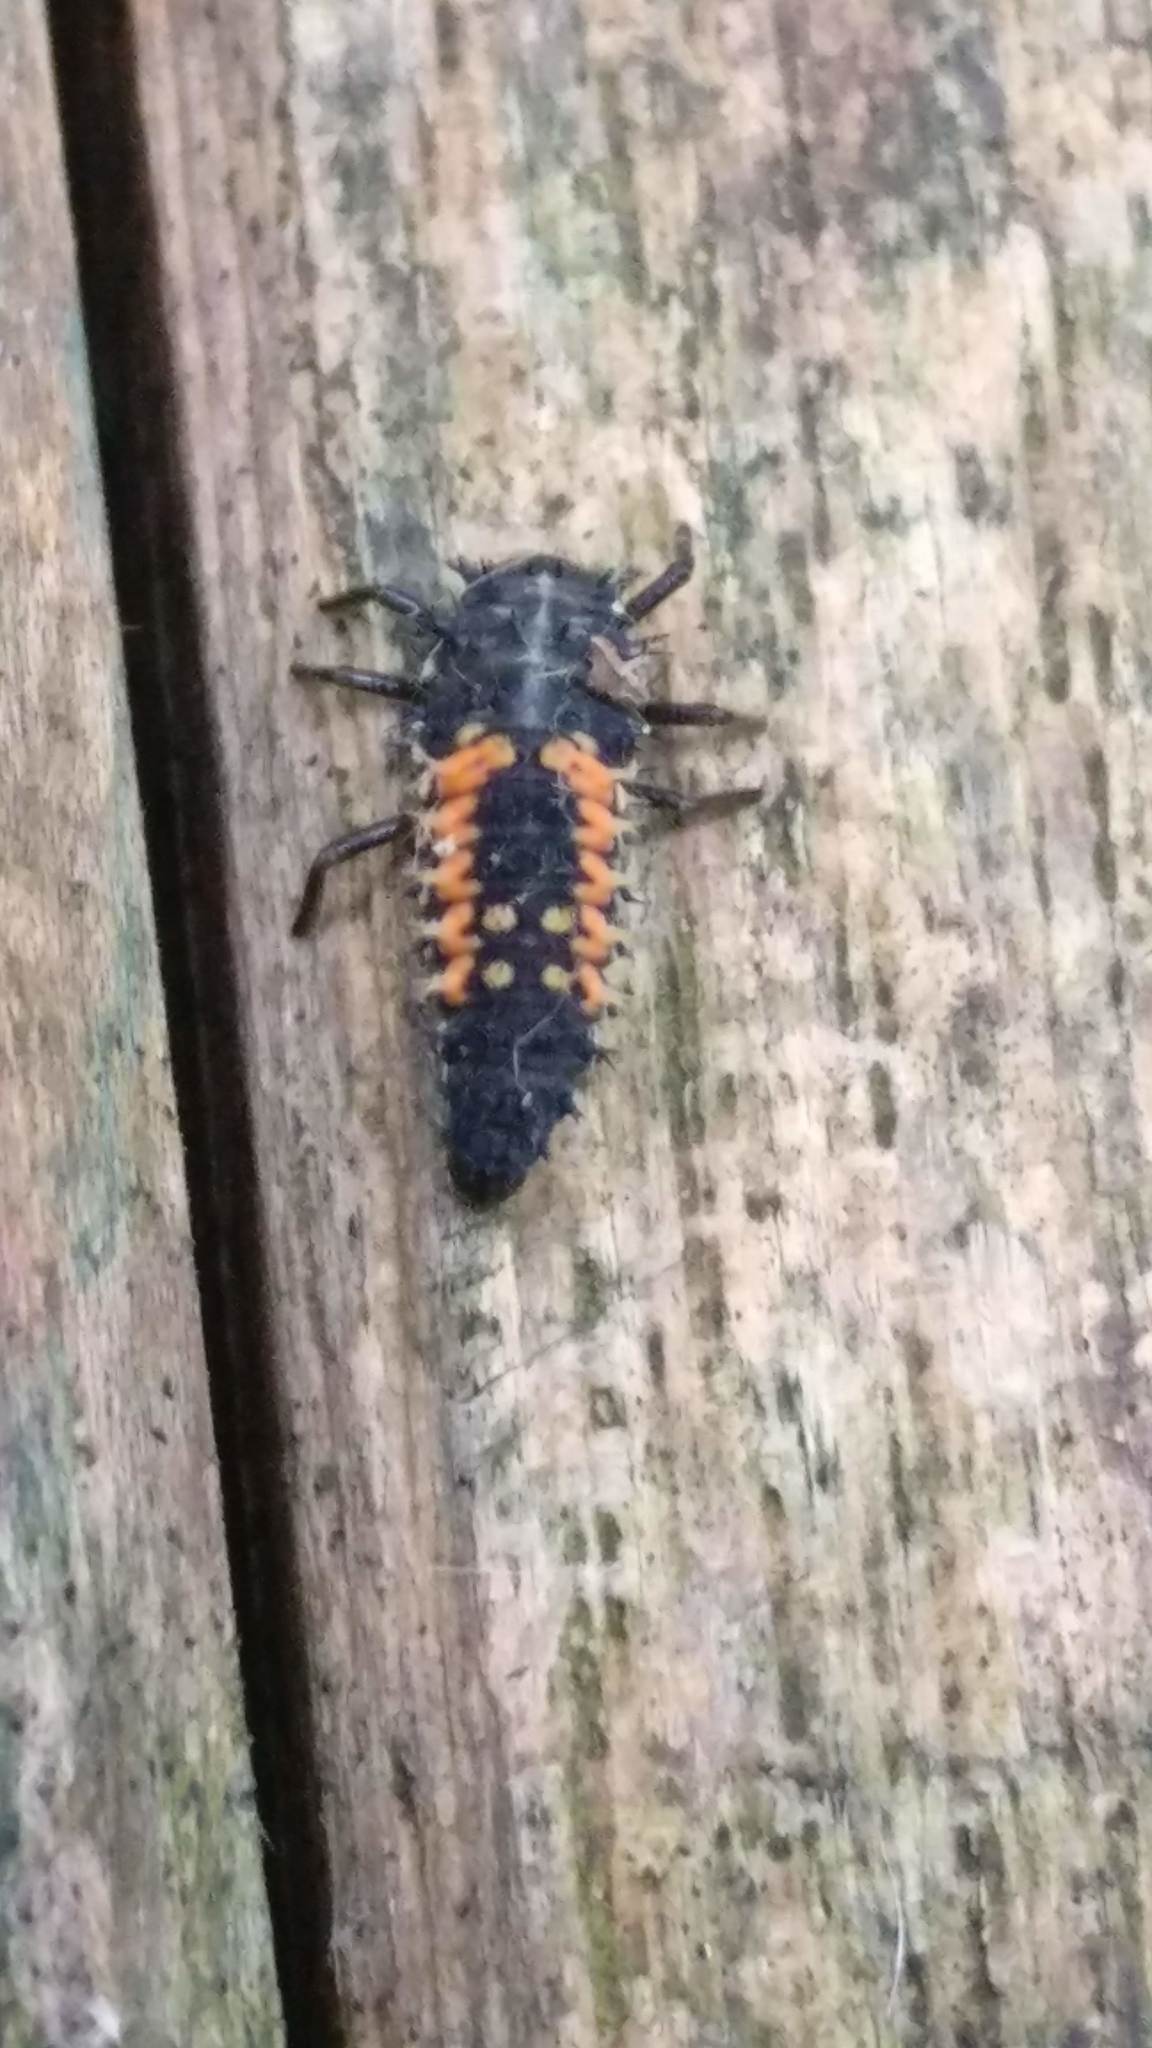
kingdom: Animalia
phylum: Arthropoda
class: Insecta
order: Coleoptera
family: Coccinellidae
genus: Harmonia
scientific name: Harmonia axyridis
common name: Harlequin ladybird
